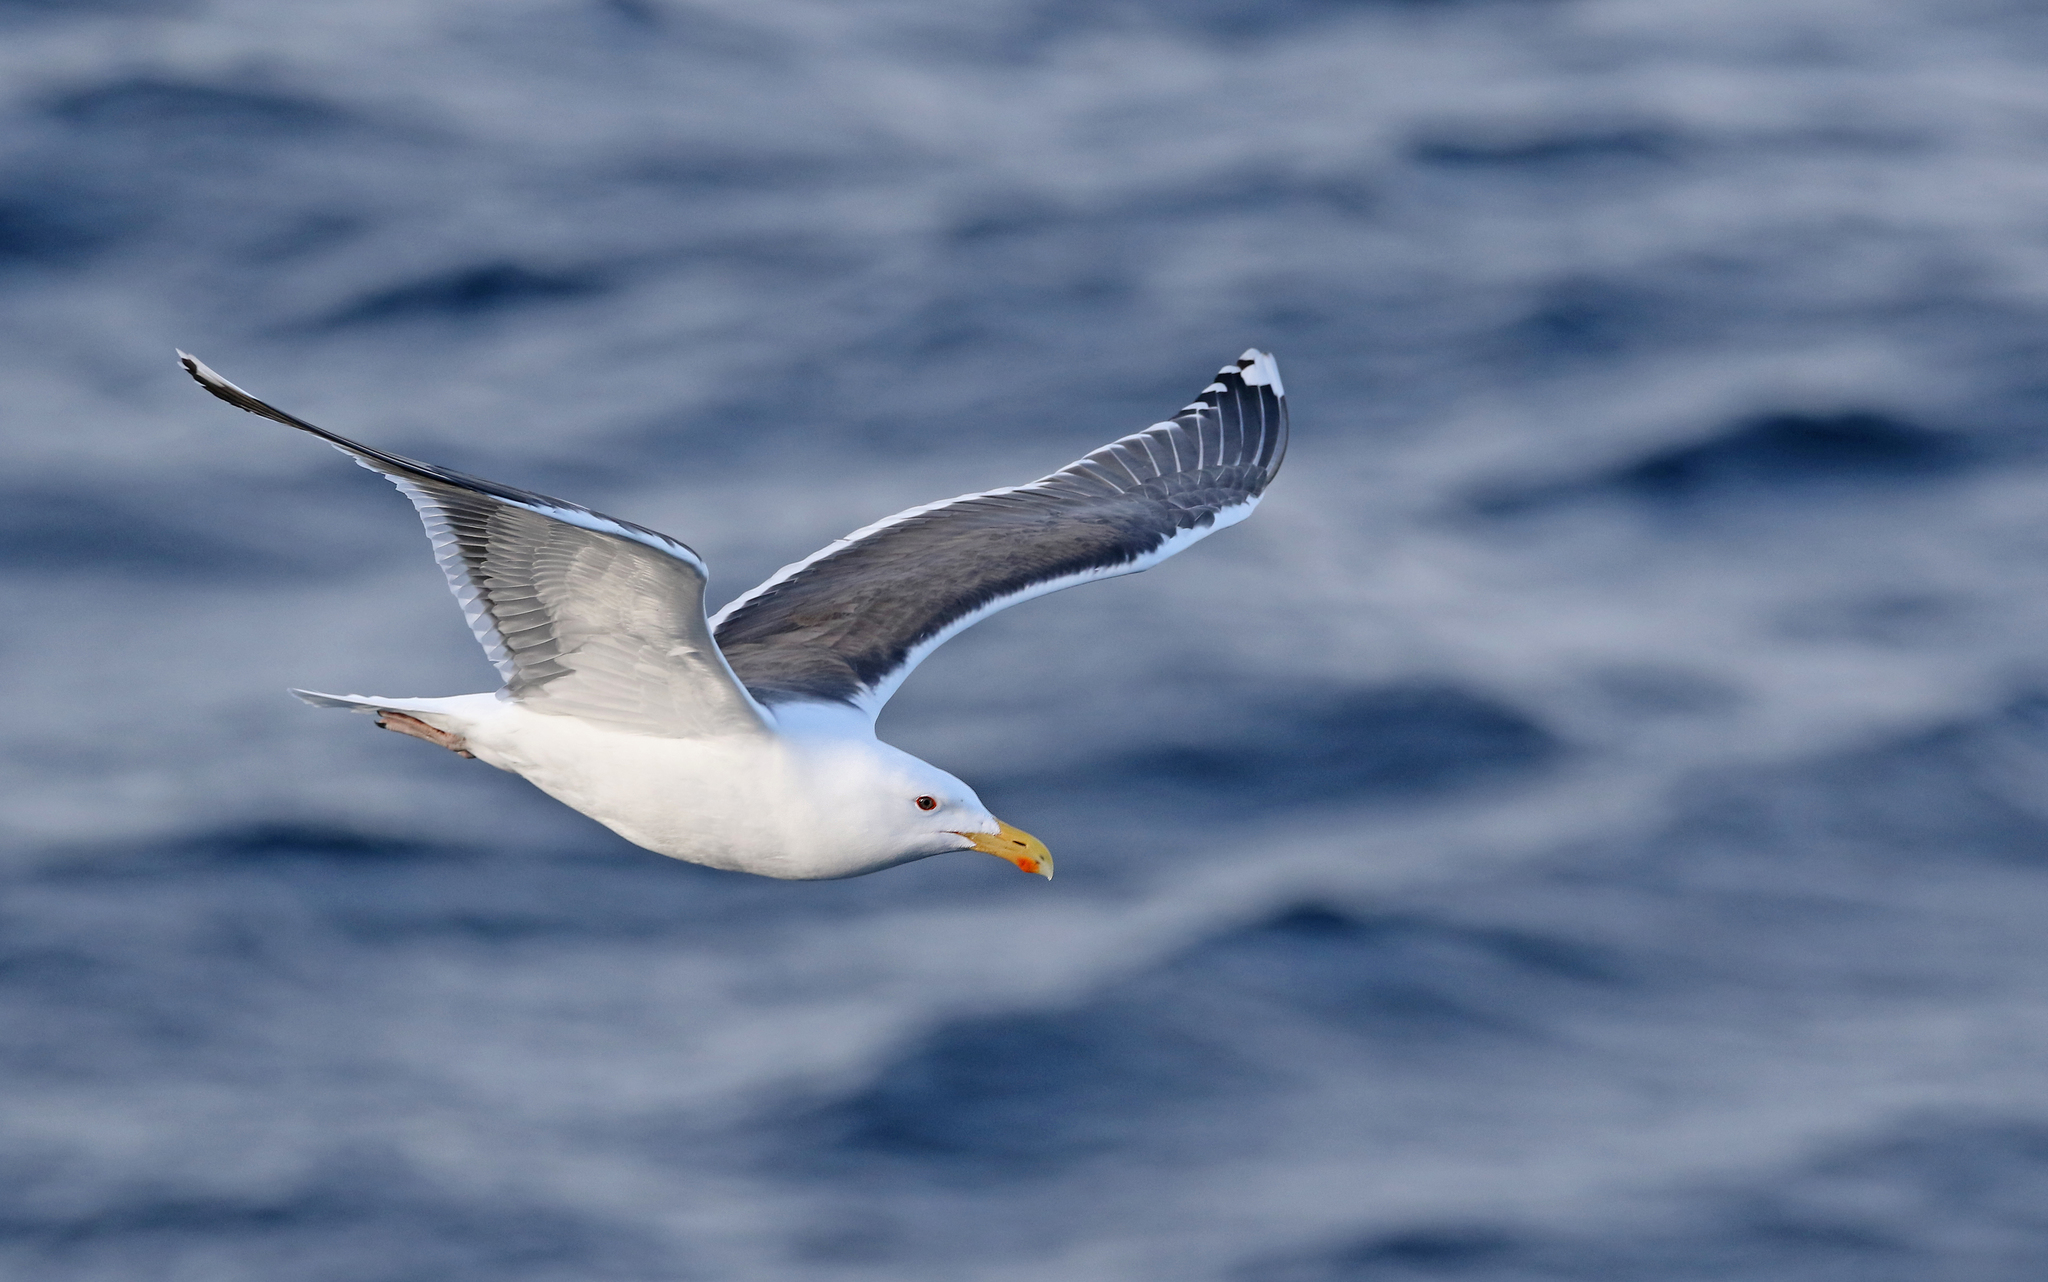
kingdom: Animalia
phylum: Chordata
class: Aves
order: Charadriiformes
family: Laridae
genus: Larus
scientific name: Larus marinus
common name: Great black-backed gull
